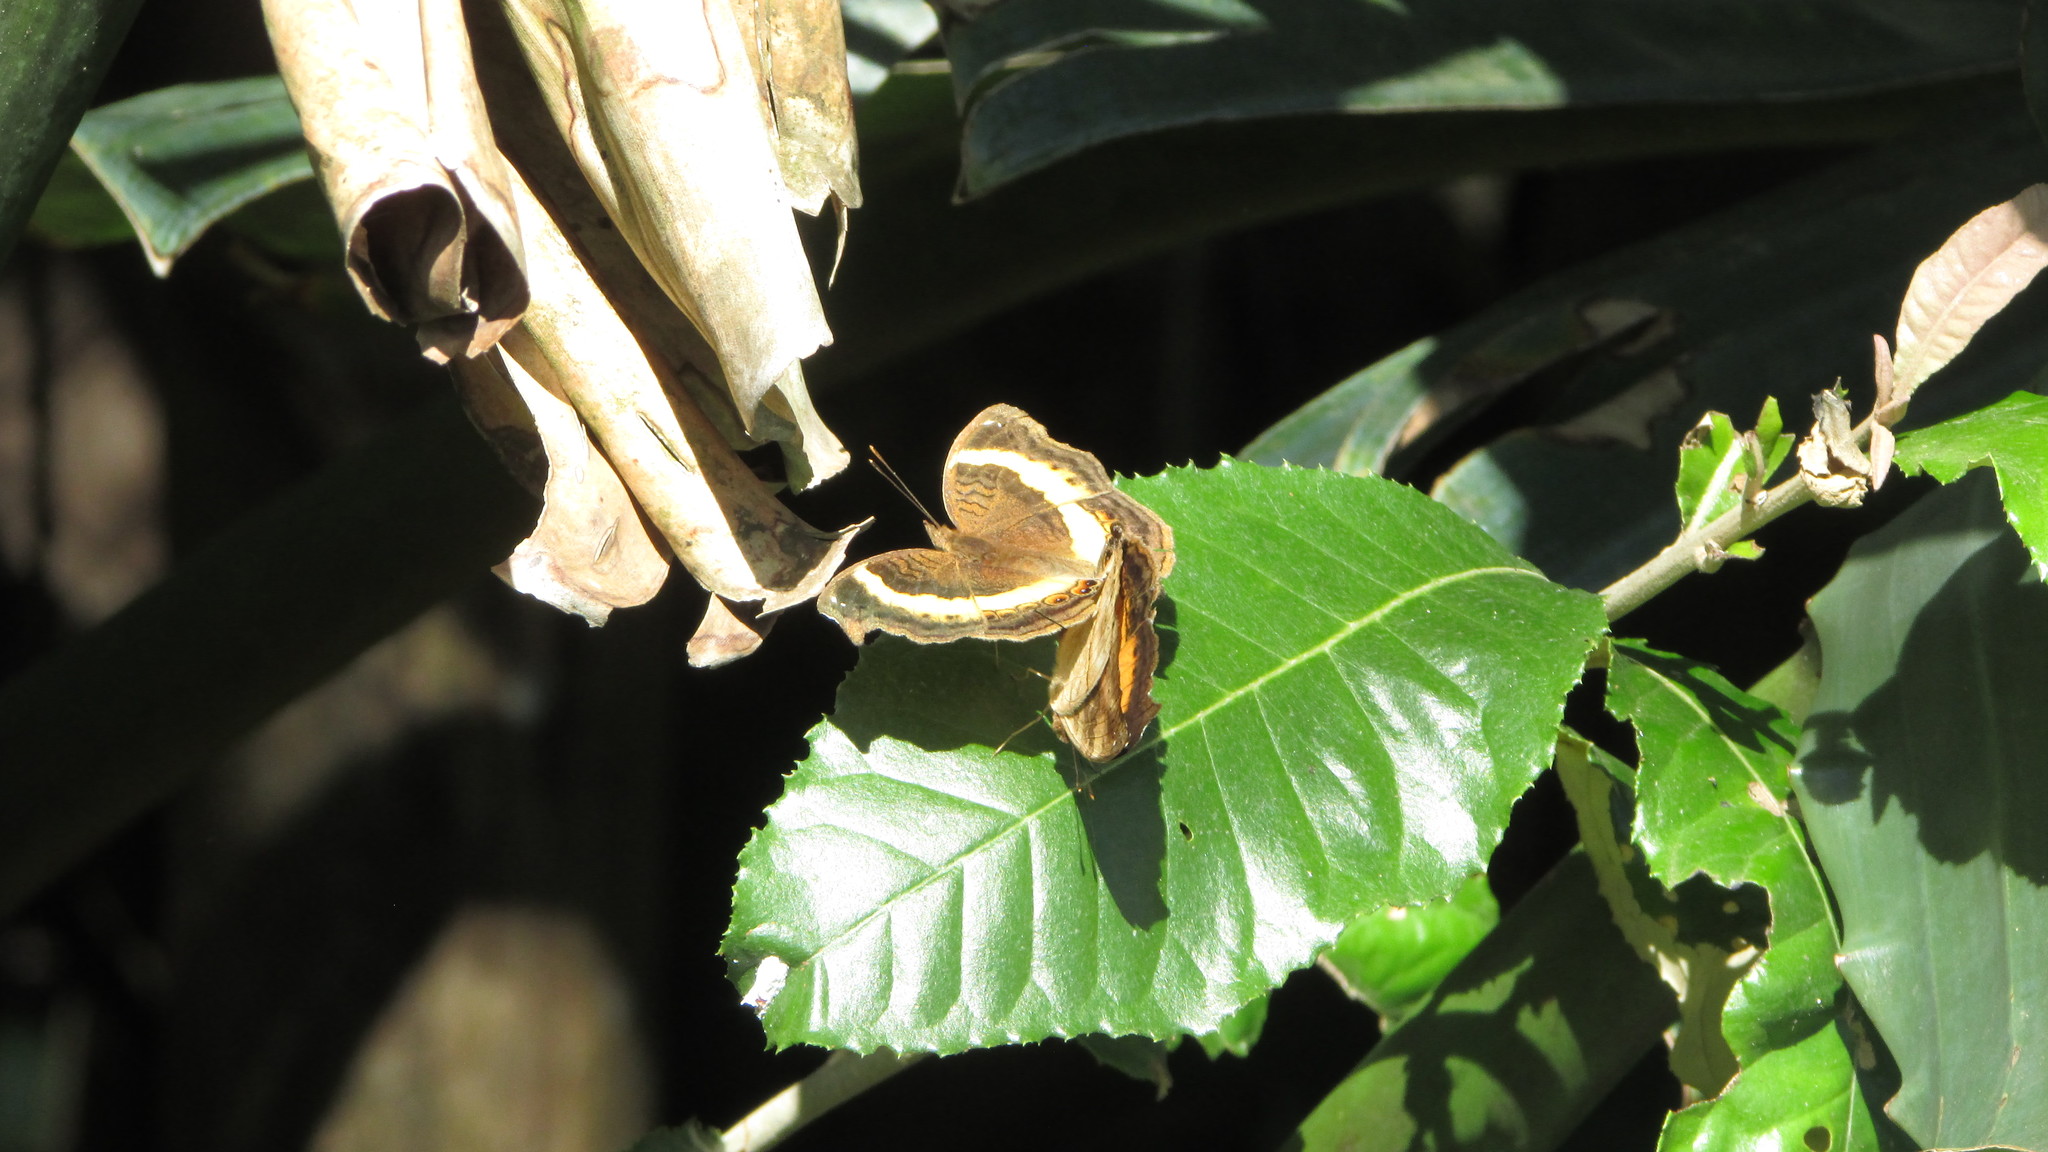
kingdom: Animalia
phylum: Arthropoda
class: Insecta
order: Lepidoptera
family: Nymphalidae
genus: Junonia
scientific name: Junonia terea
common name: Soldier pansy
